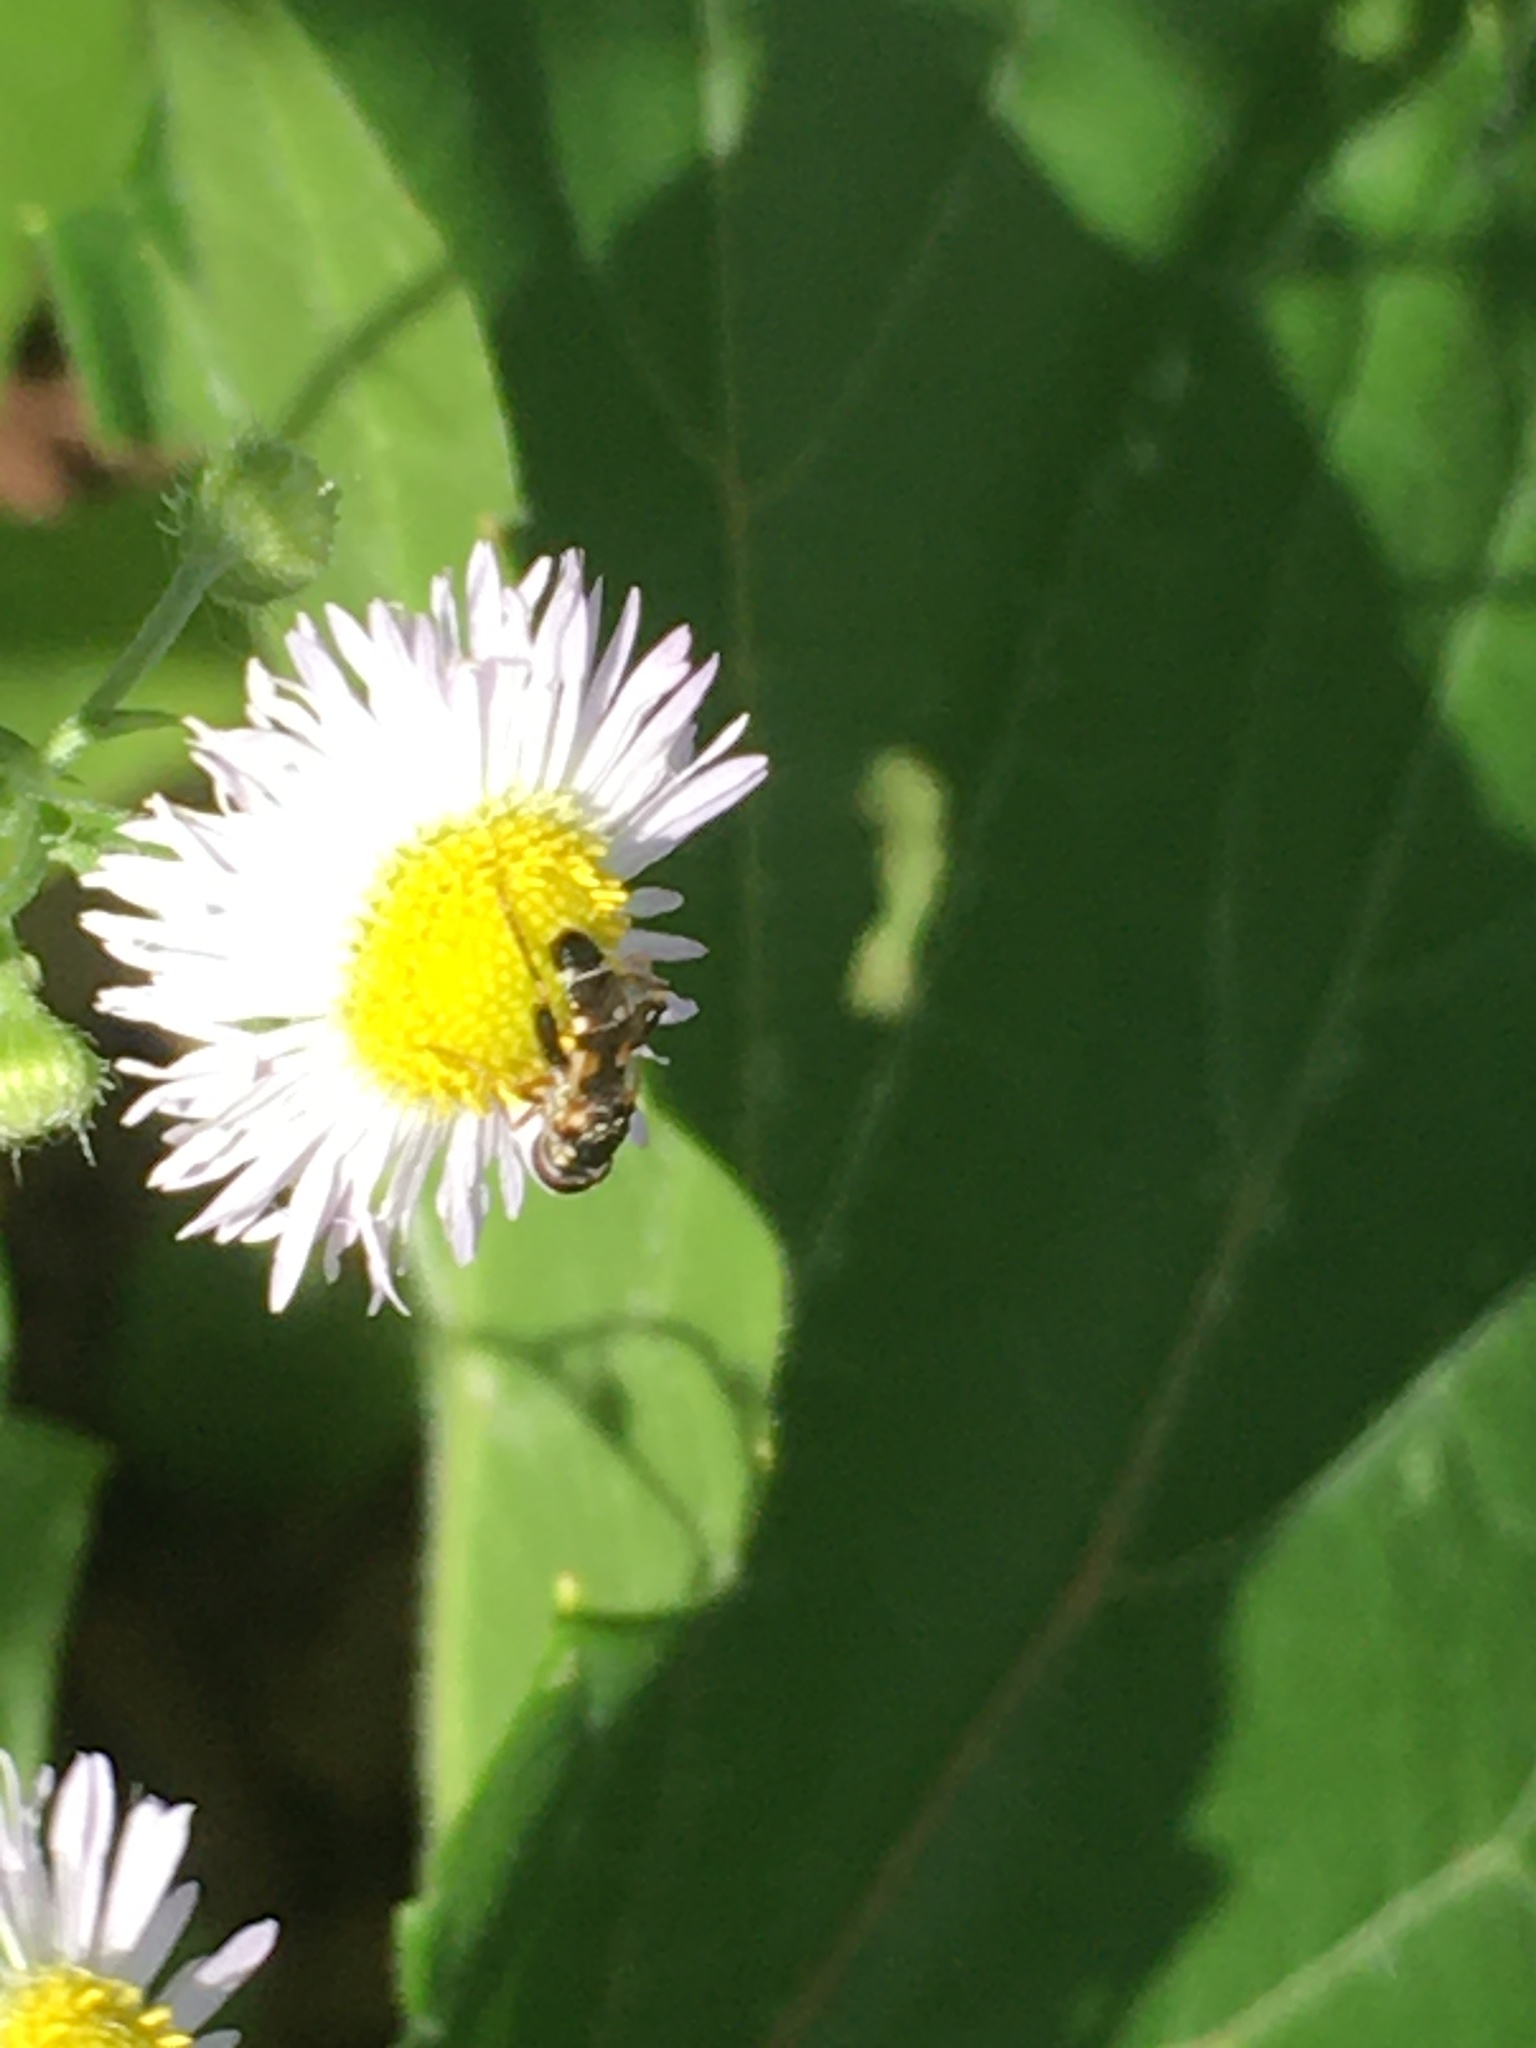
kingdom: Animalia
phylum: Arthropoda
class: Insecta
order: Diptera
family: Syrphidae
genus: Syritta
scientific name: Syritta pipiens
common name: Hover fly
